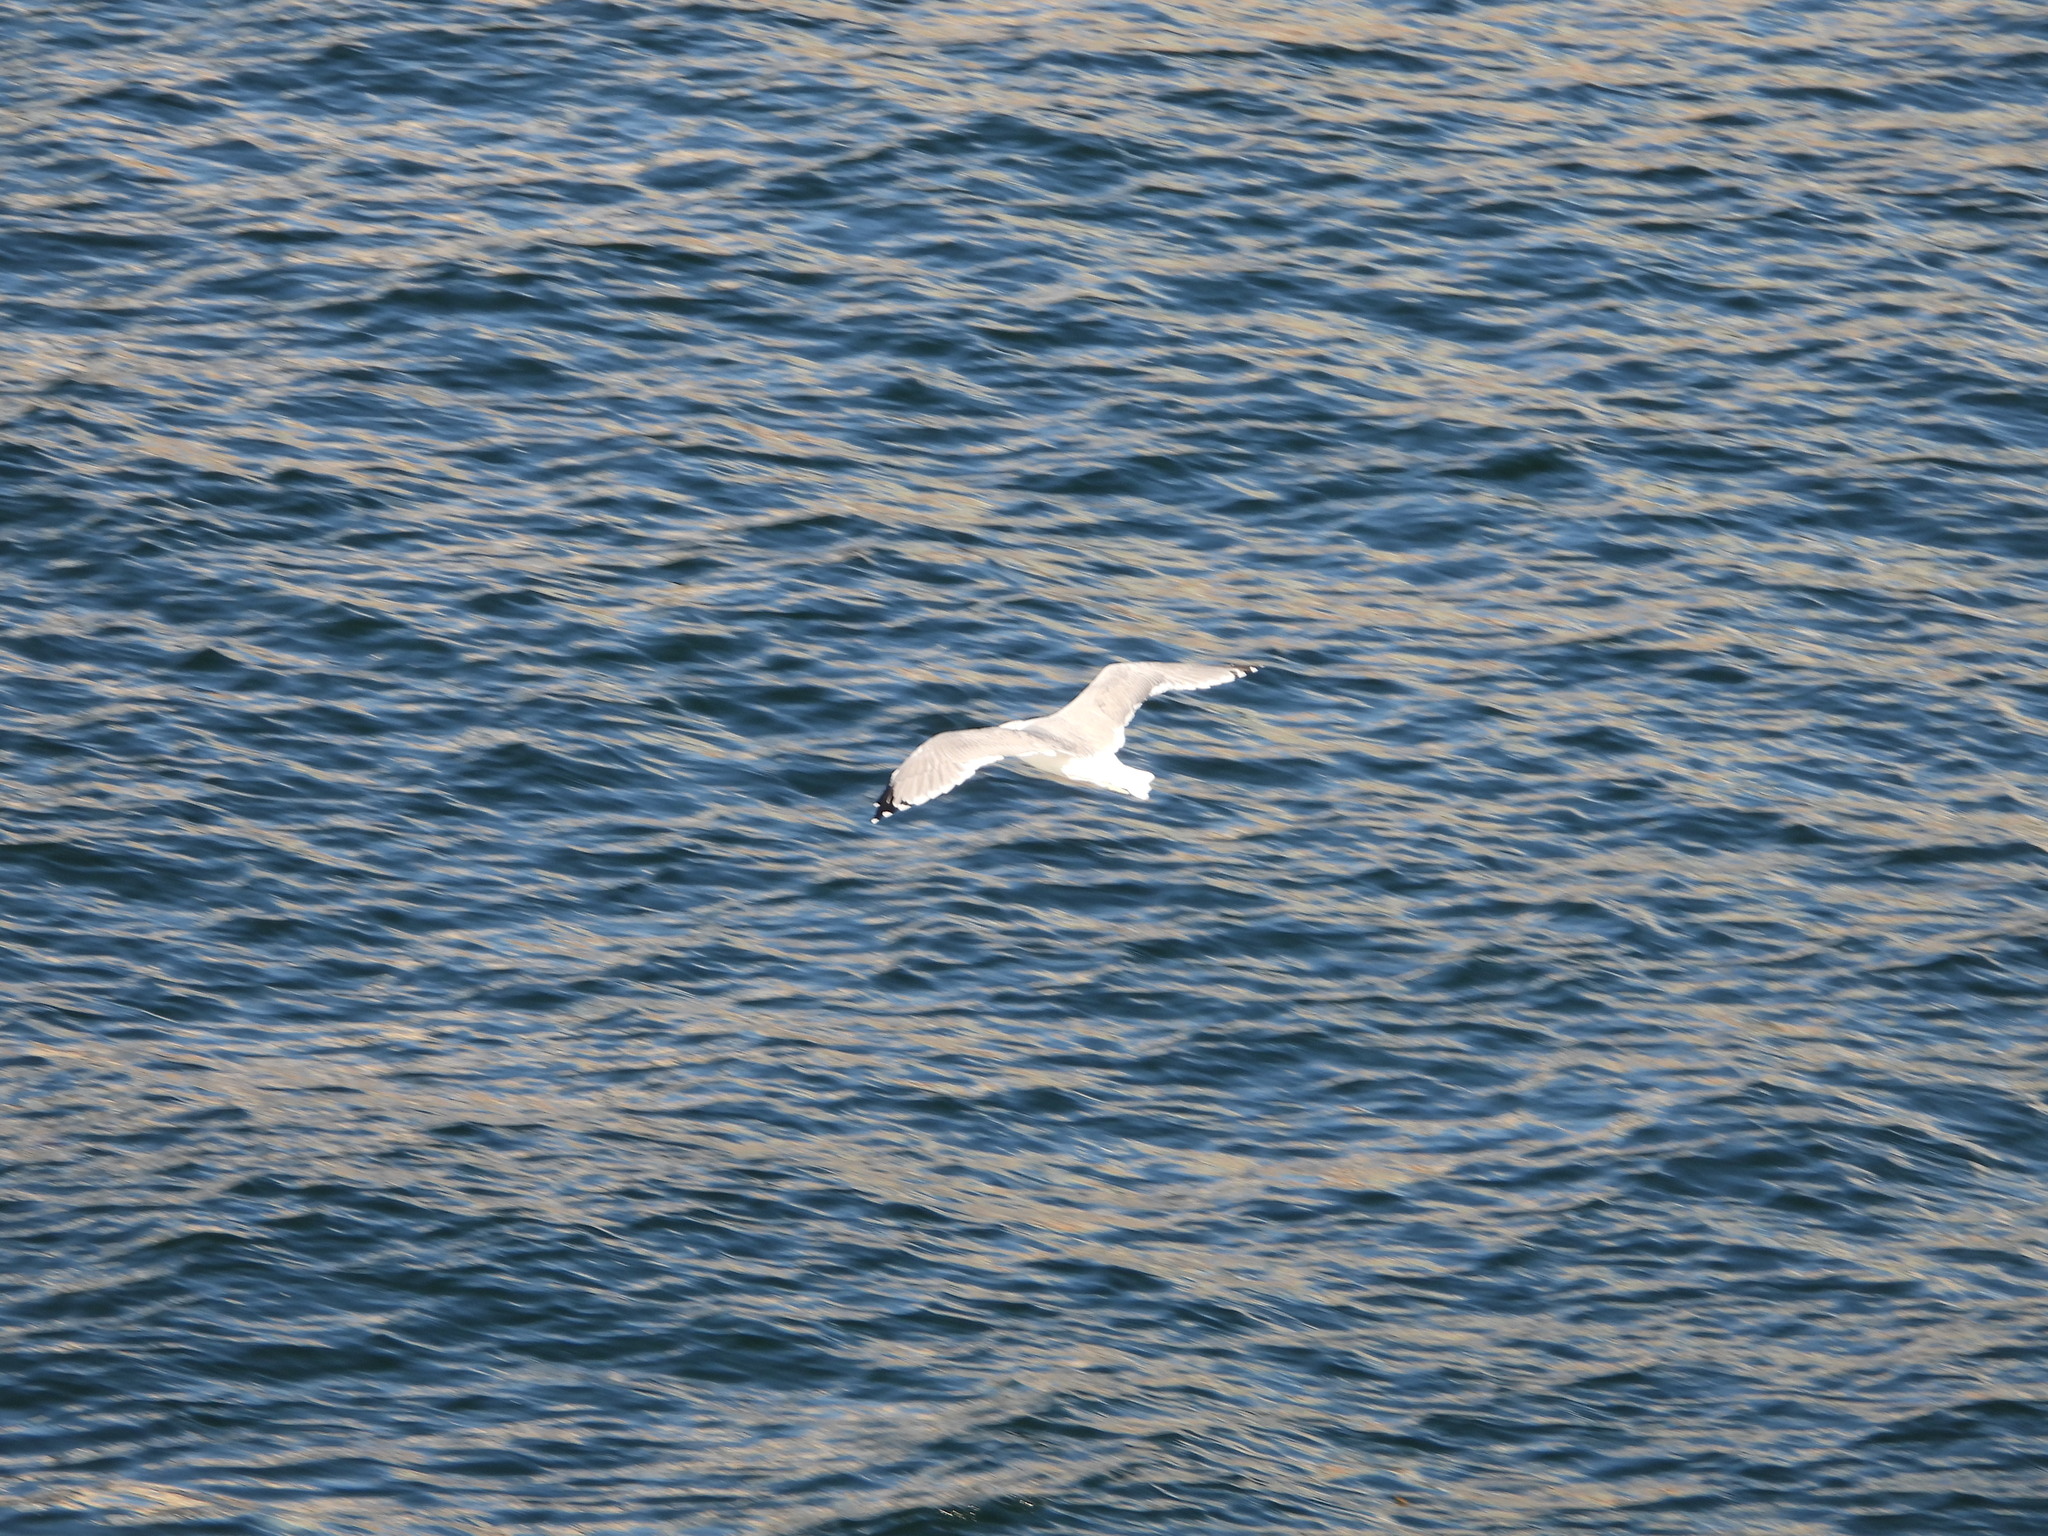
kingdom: Animalia
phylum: Chordata
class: Aves
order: Charadriiformes
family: Laridae
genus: Larus
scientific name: Larus californicus
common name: California gull
